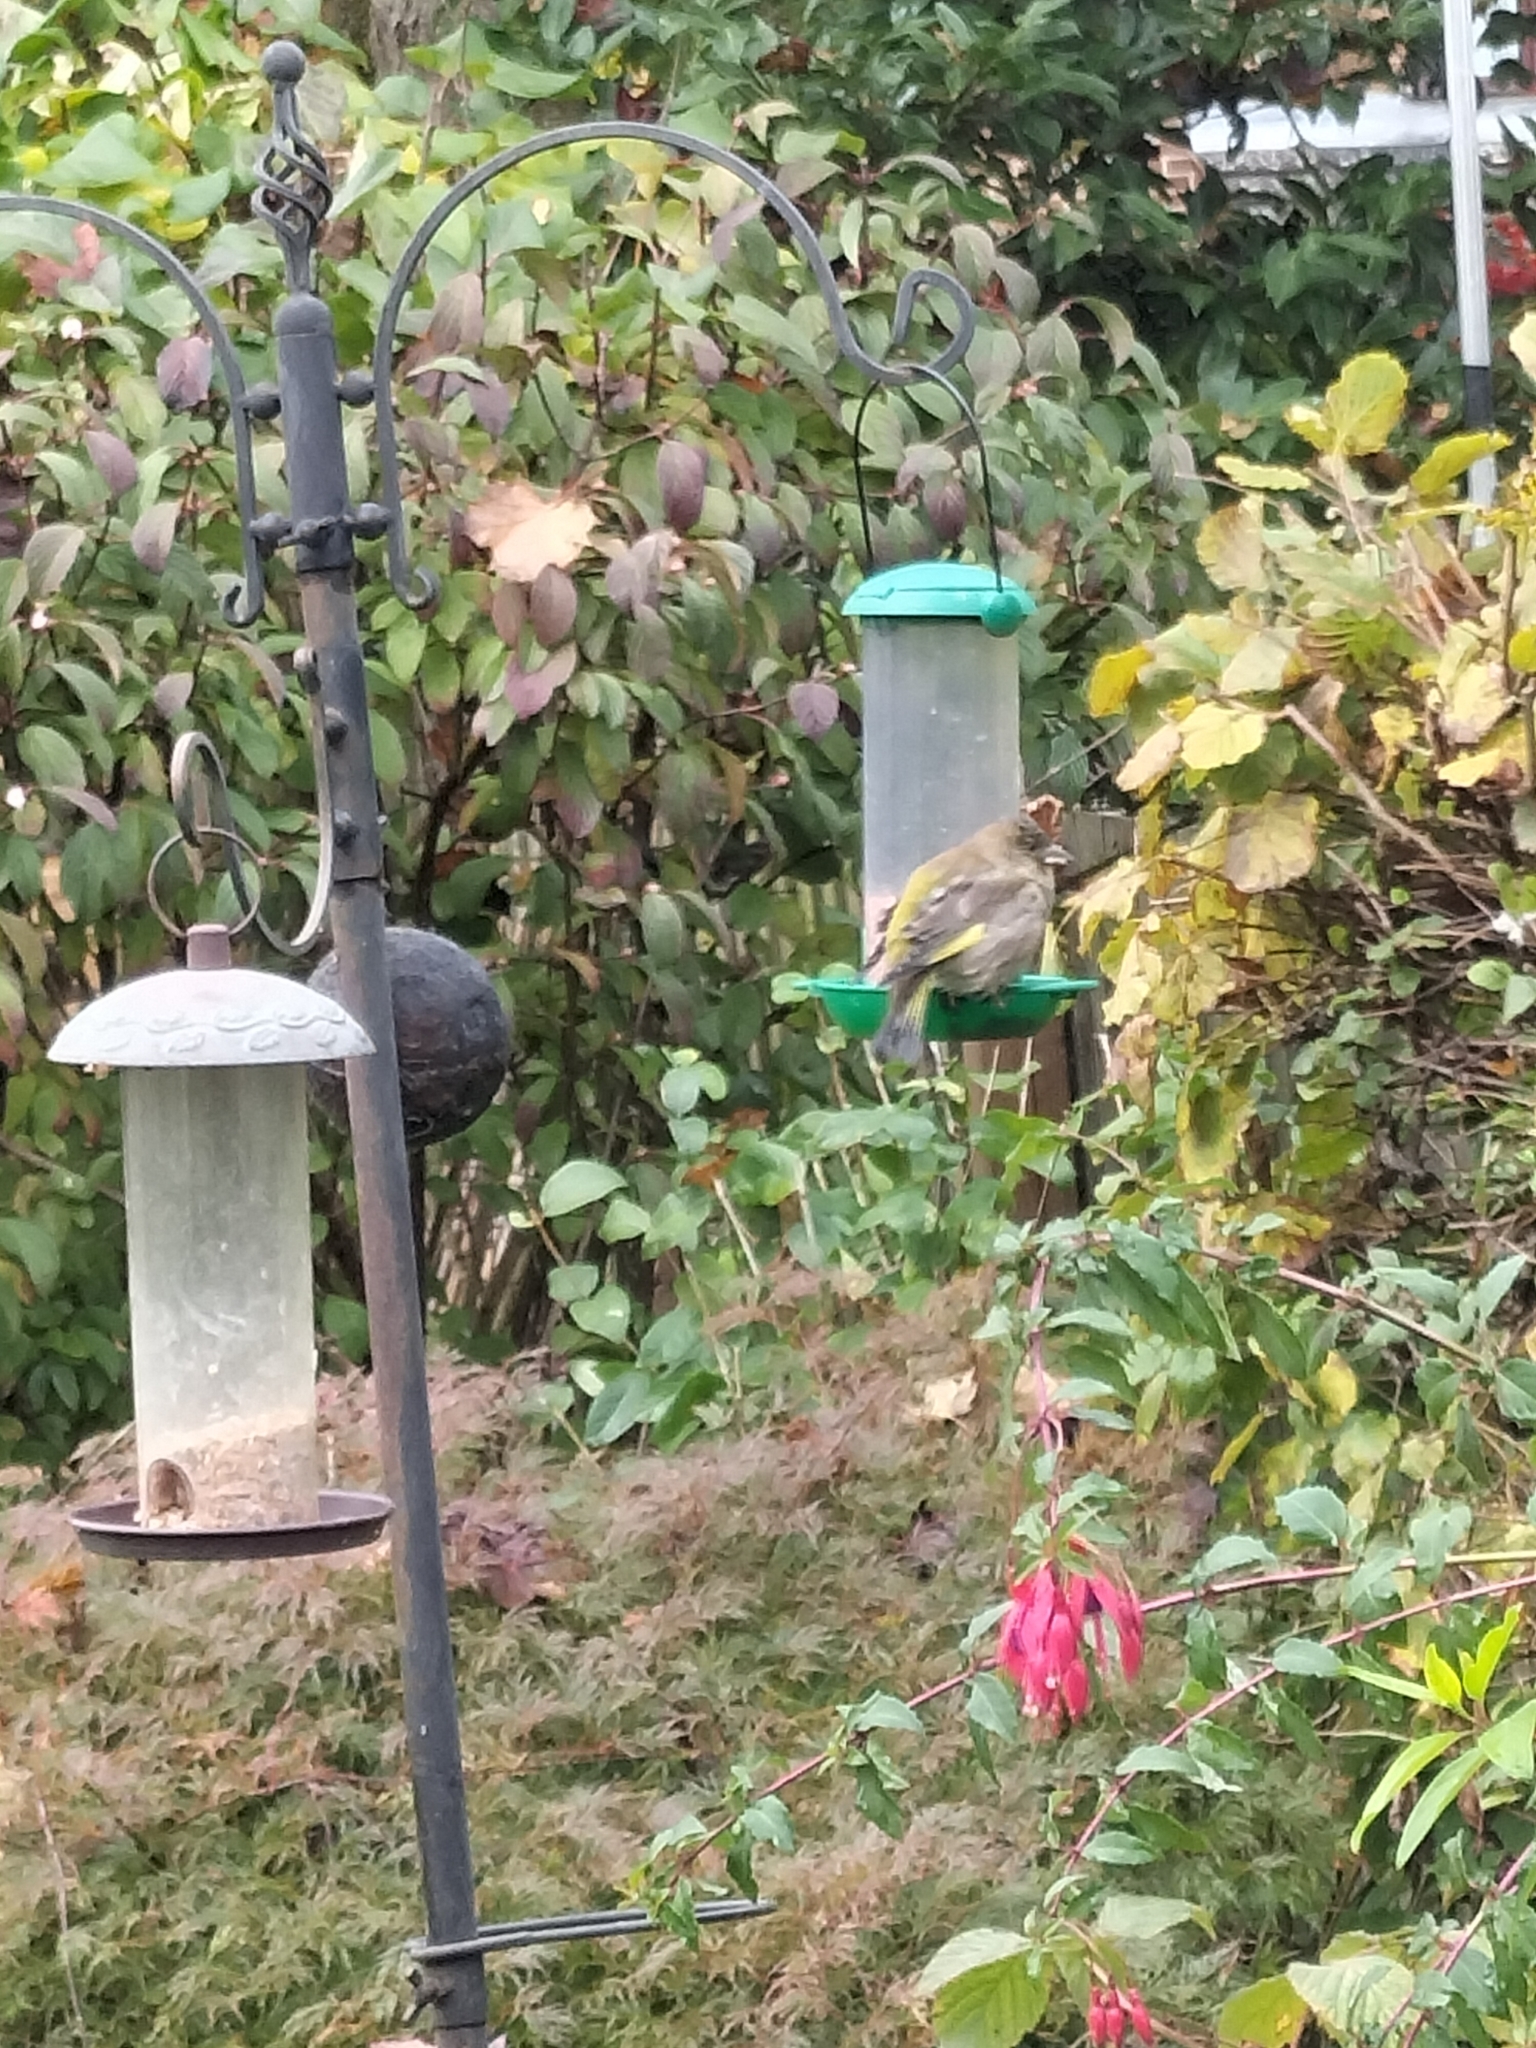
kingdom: Plantae
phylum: Tracheophyta
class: Liliopsida
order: Poales
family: Poaceae
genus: Chloris
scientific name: Chloris chloris
